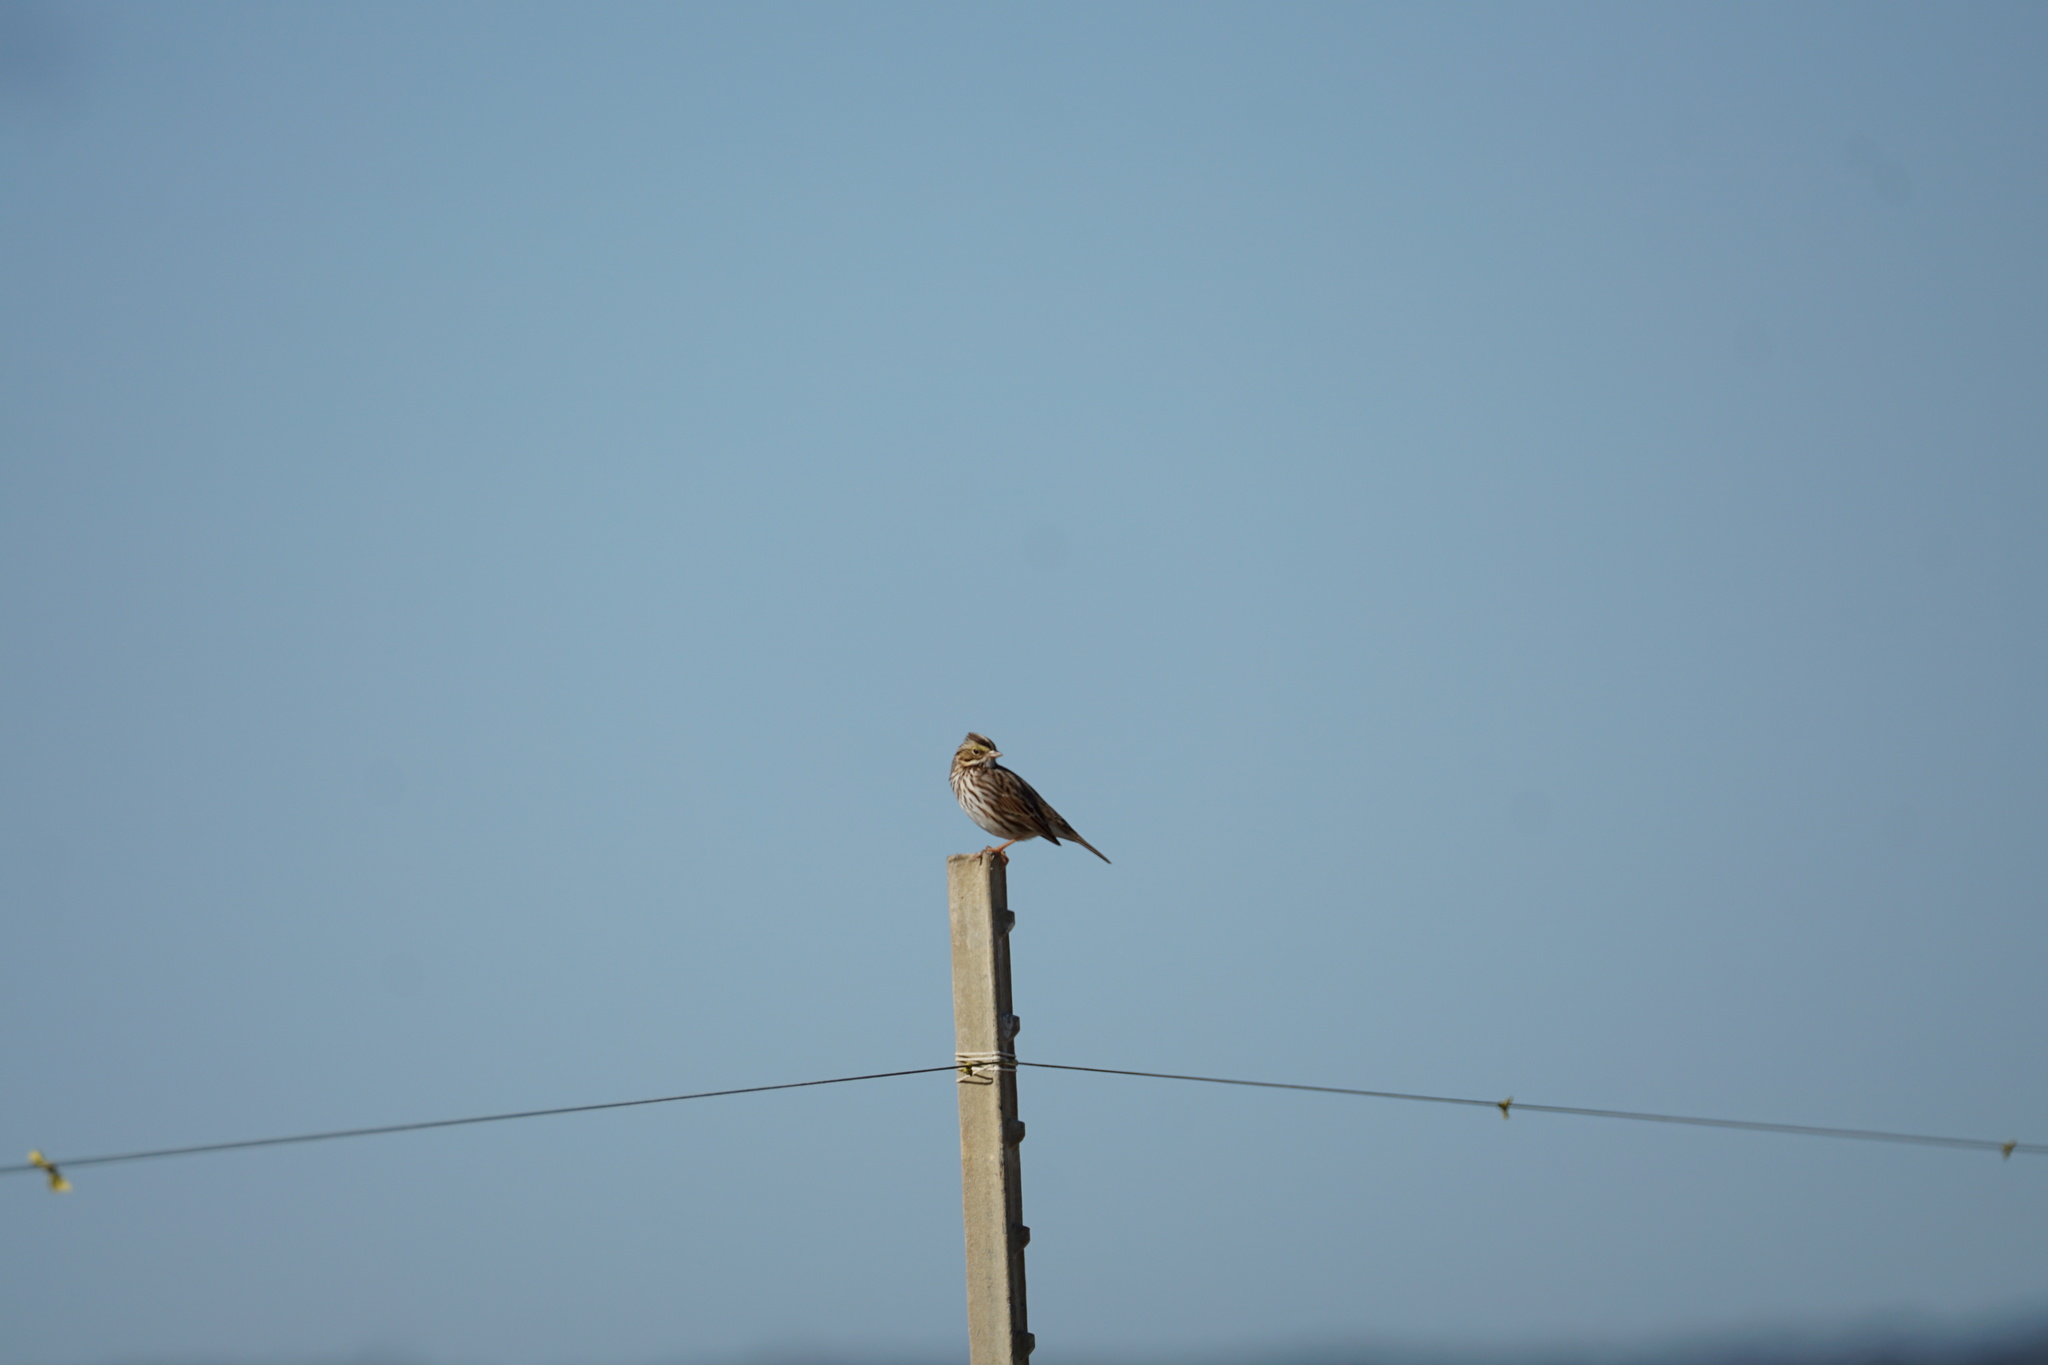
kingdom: Animalia
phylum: Chordata
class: Aves
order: Passeriformes
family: Passerellidae
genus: Passerculus
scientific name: Passerculus sandwichensis
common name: Savannah sparrow
